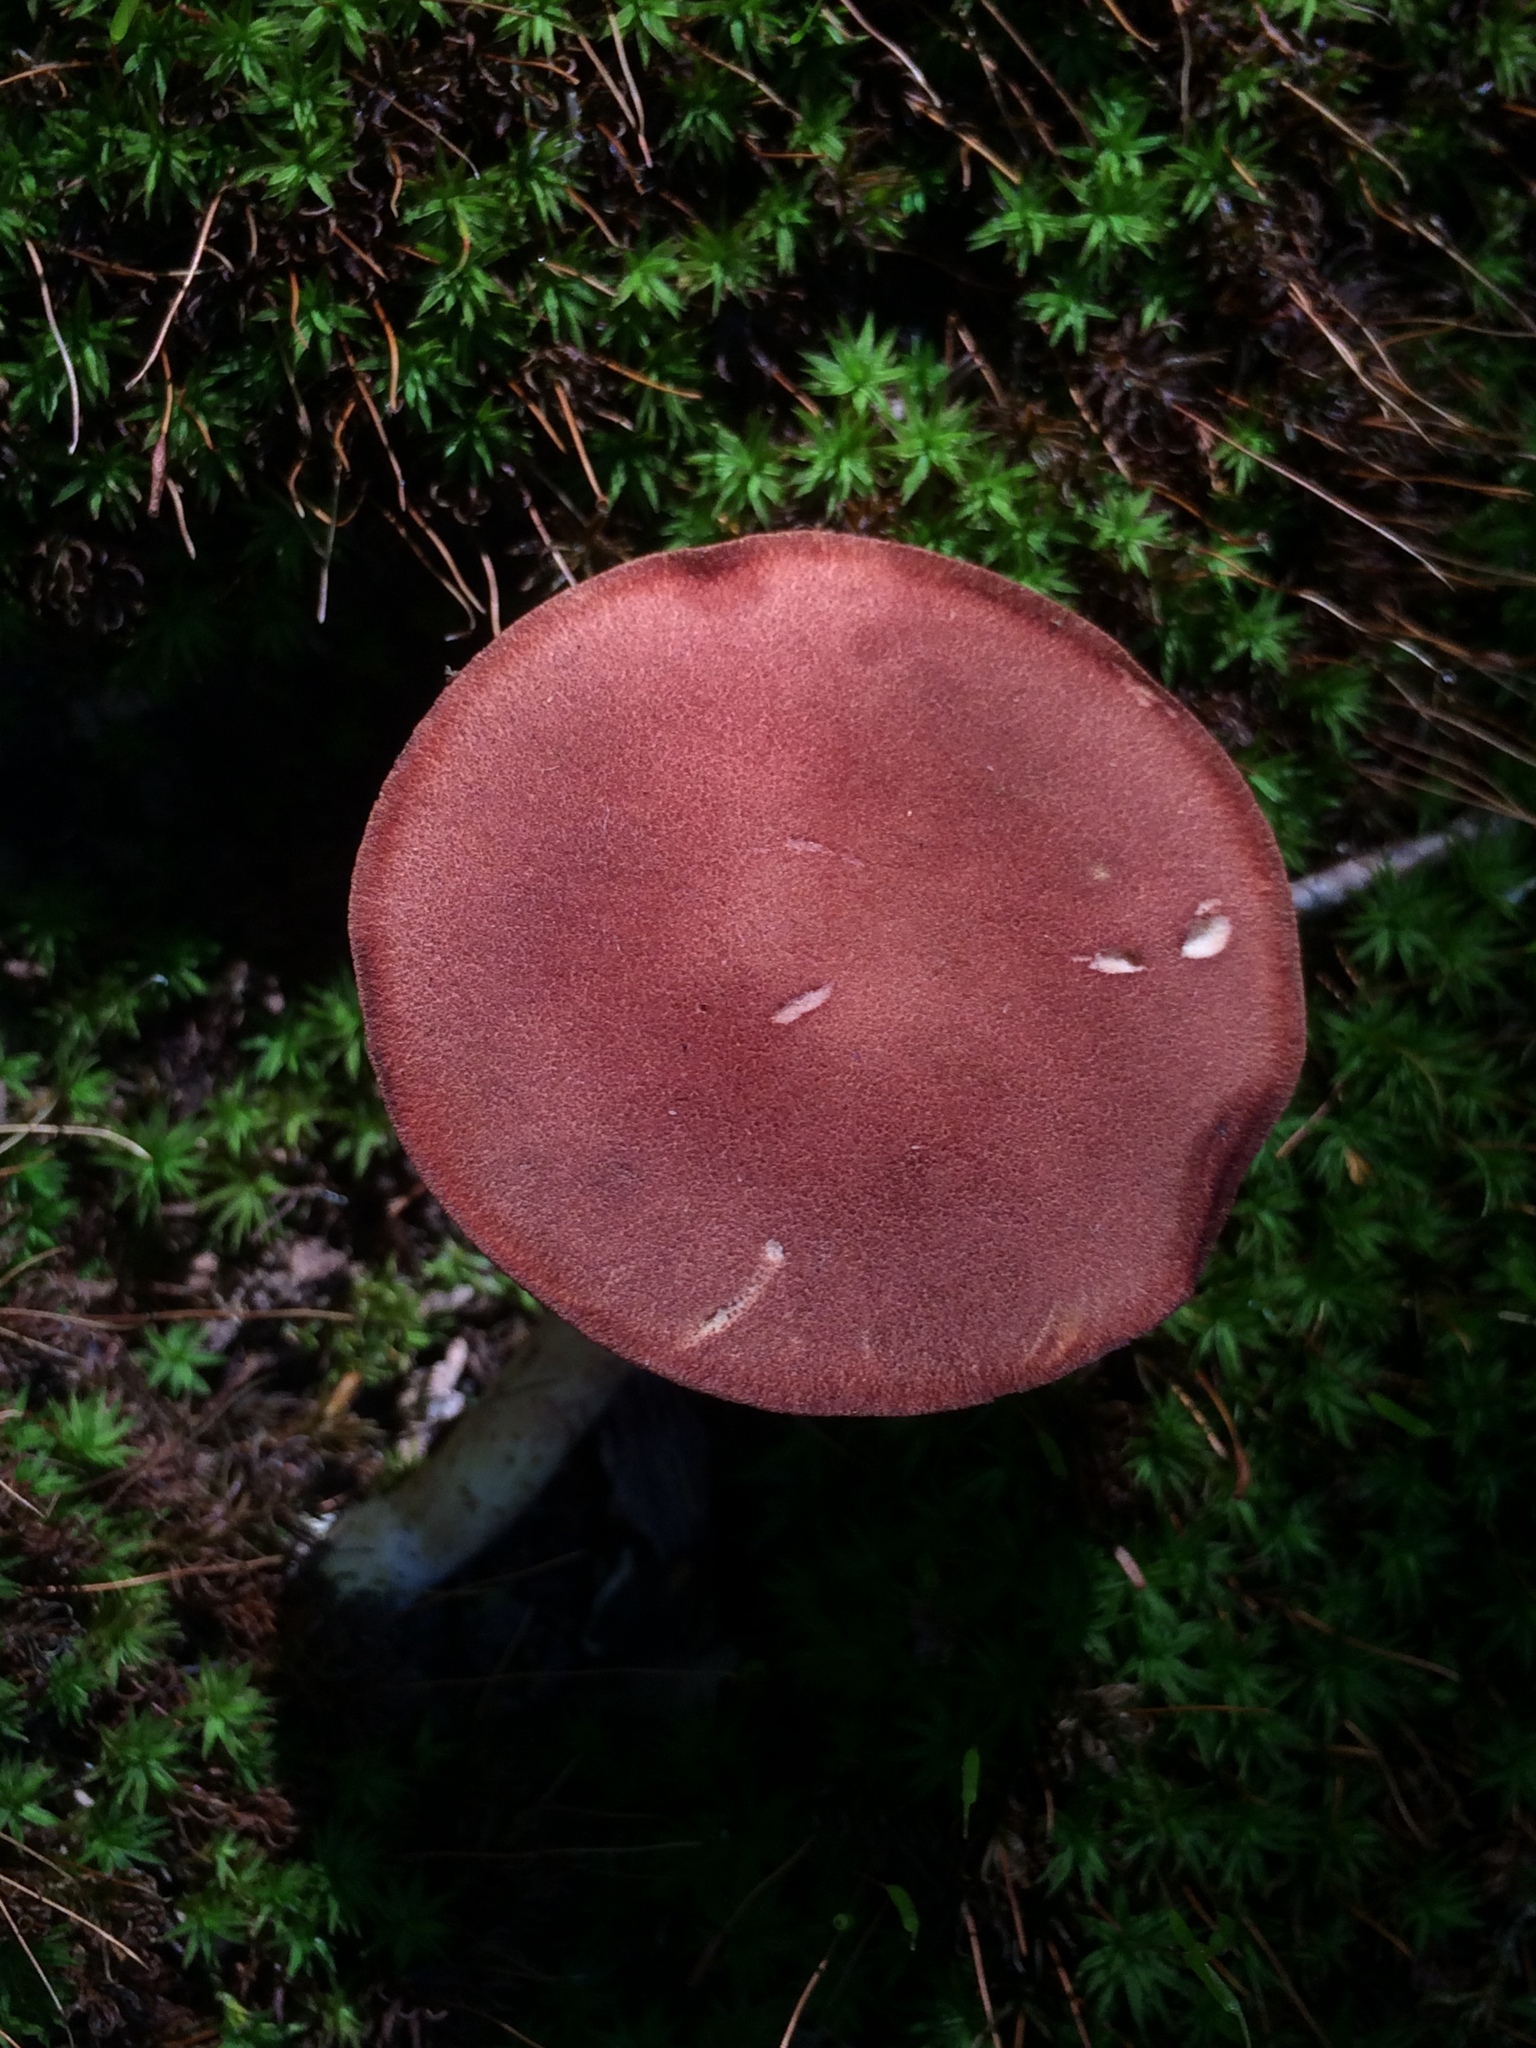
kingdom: Fungi
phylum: Basidiomycota
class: Agaricomycetes
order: Boletales
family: Boletaceae
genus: Phylloporus
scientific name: Phylloporus leucomycelinus
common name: Gilled bolete
